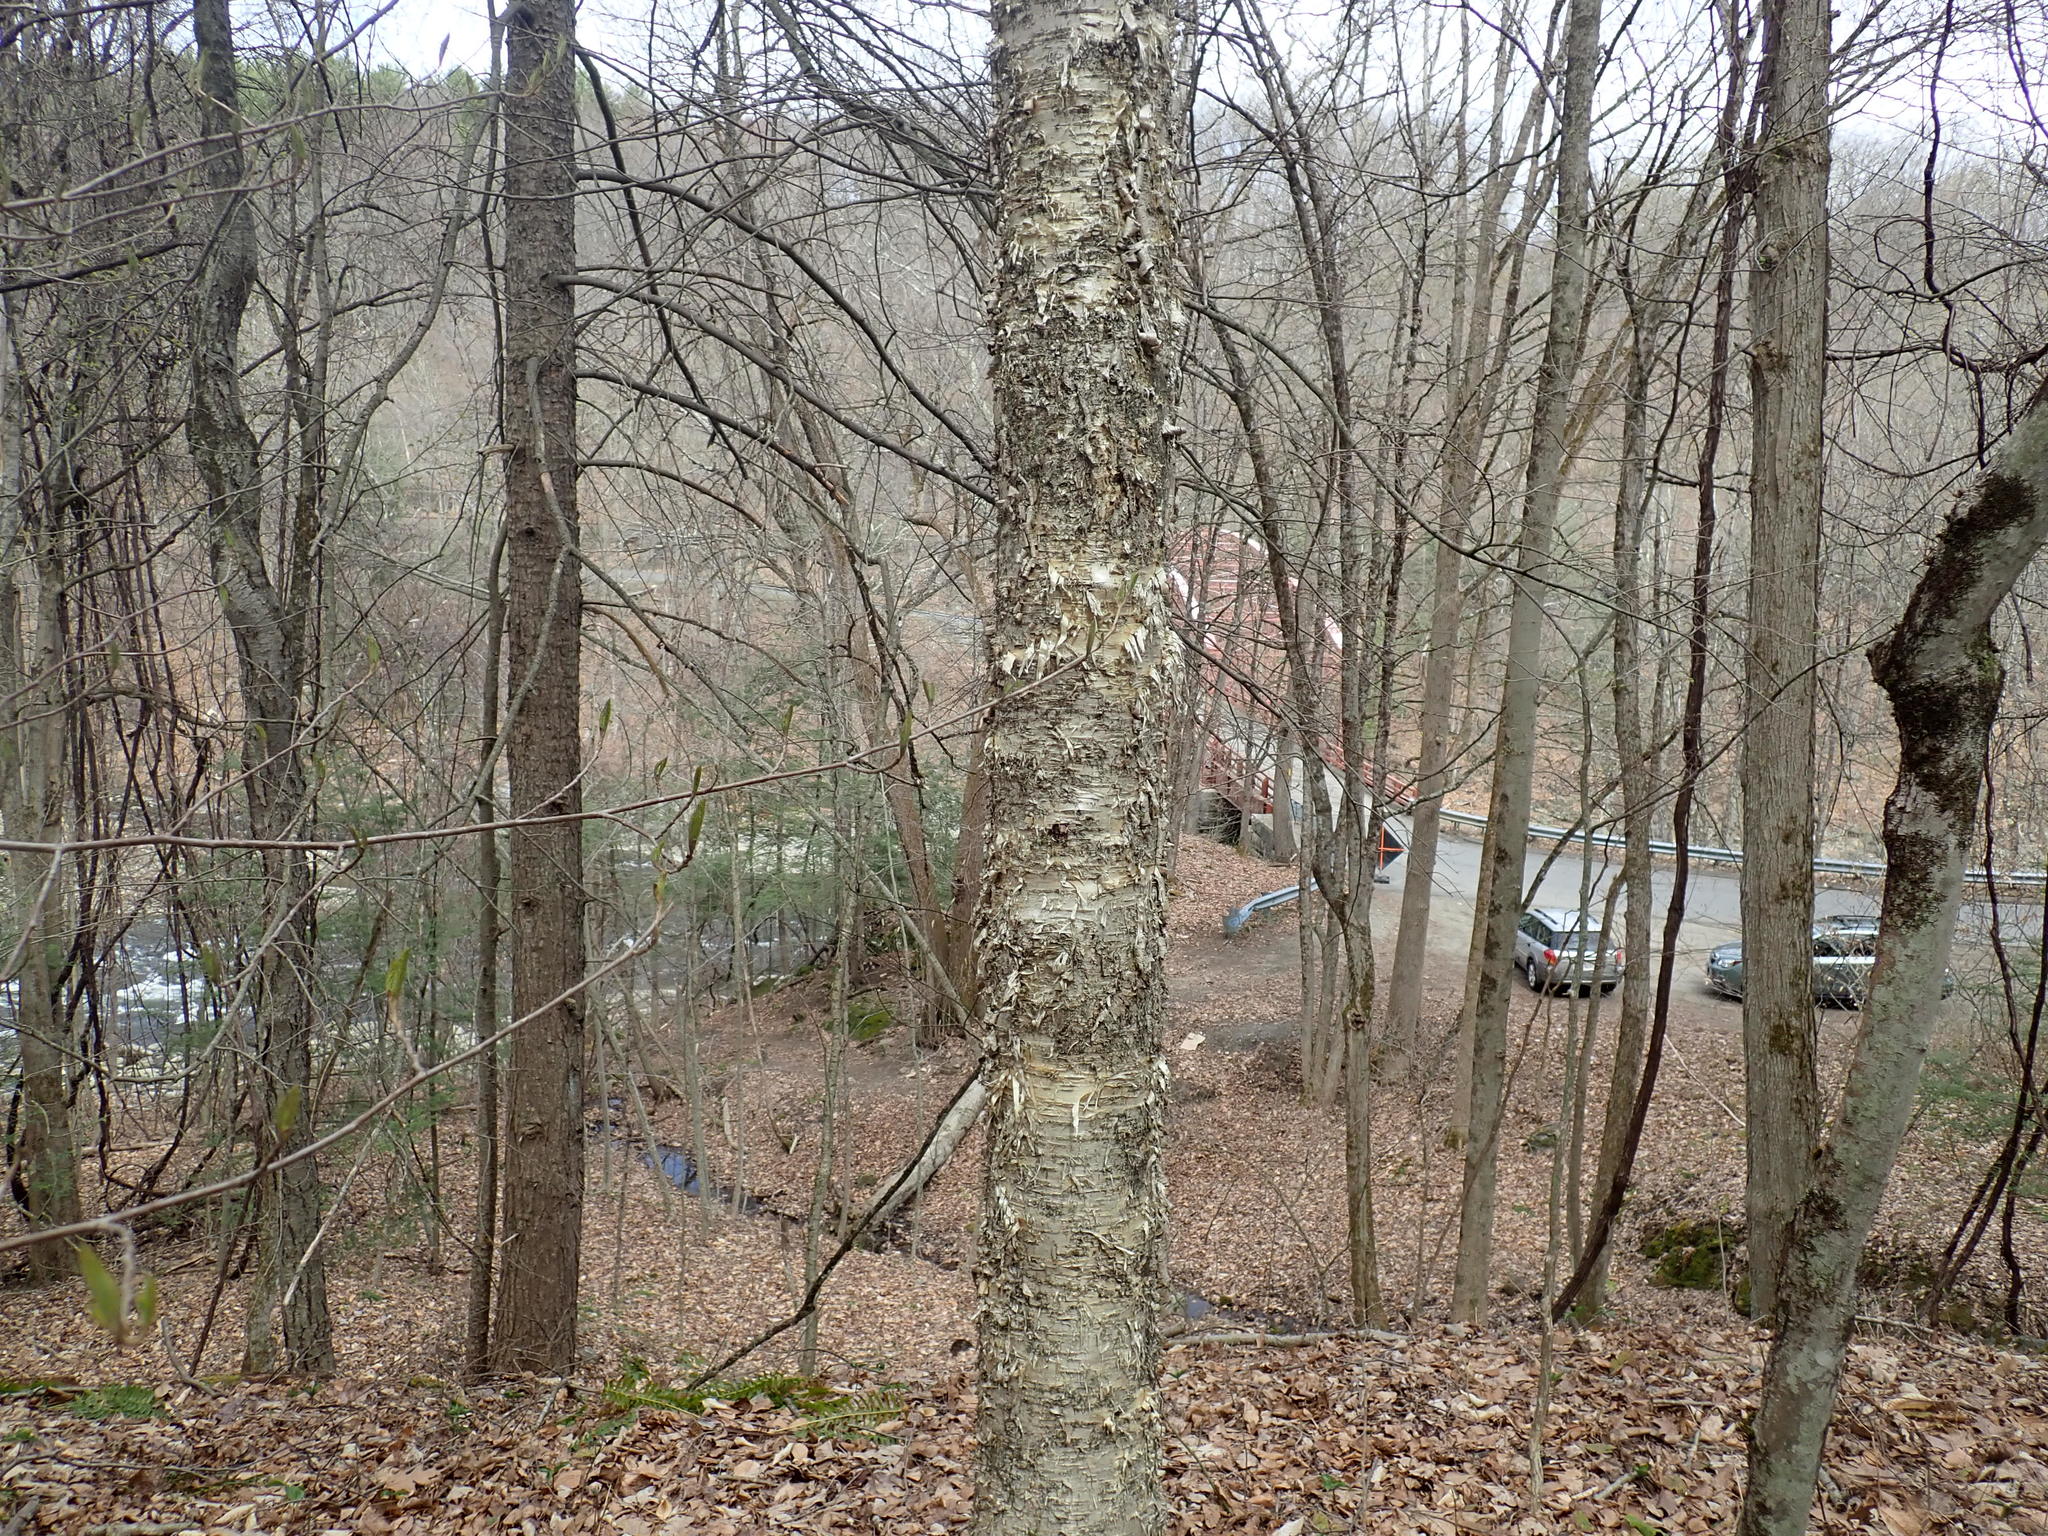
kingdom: Plantae
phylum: Tracheophyta
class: Magnoliopsida
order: Fagales
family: Betulaceae
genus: Betula
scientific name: Betula alleghaniensis
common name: Yellow birch
